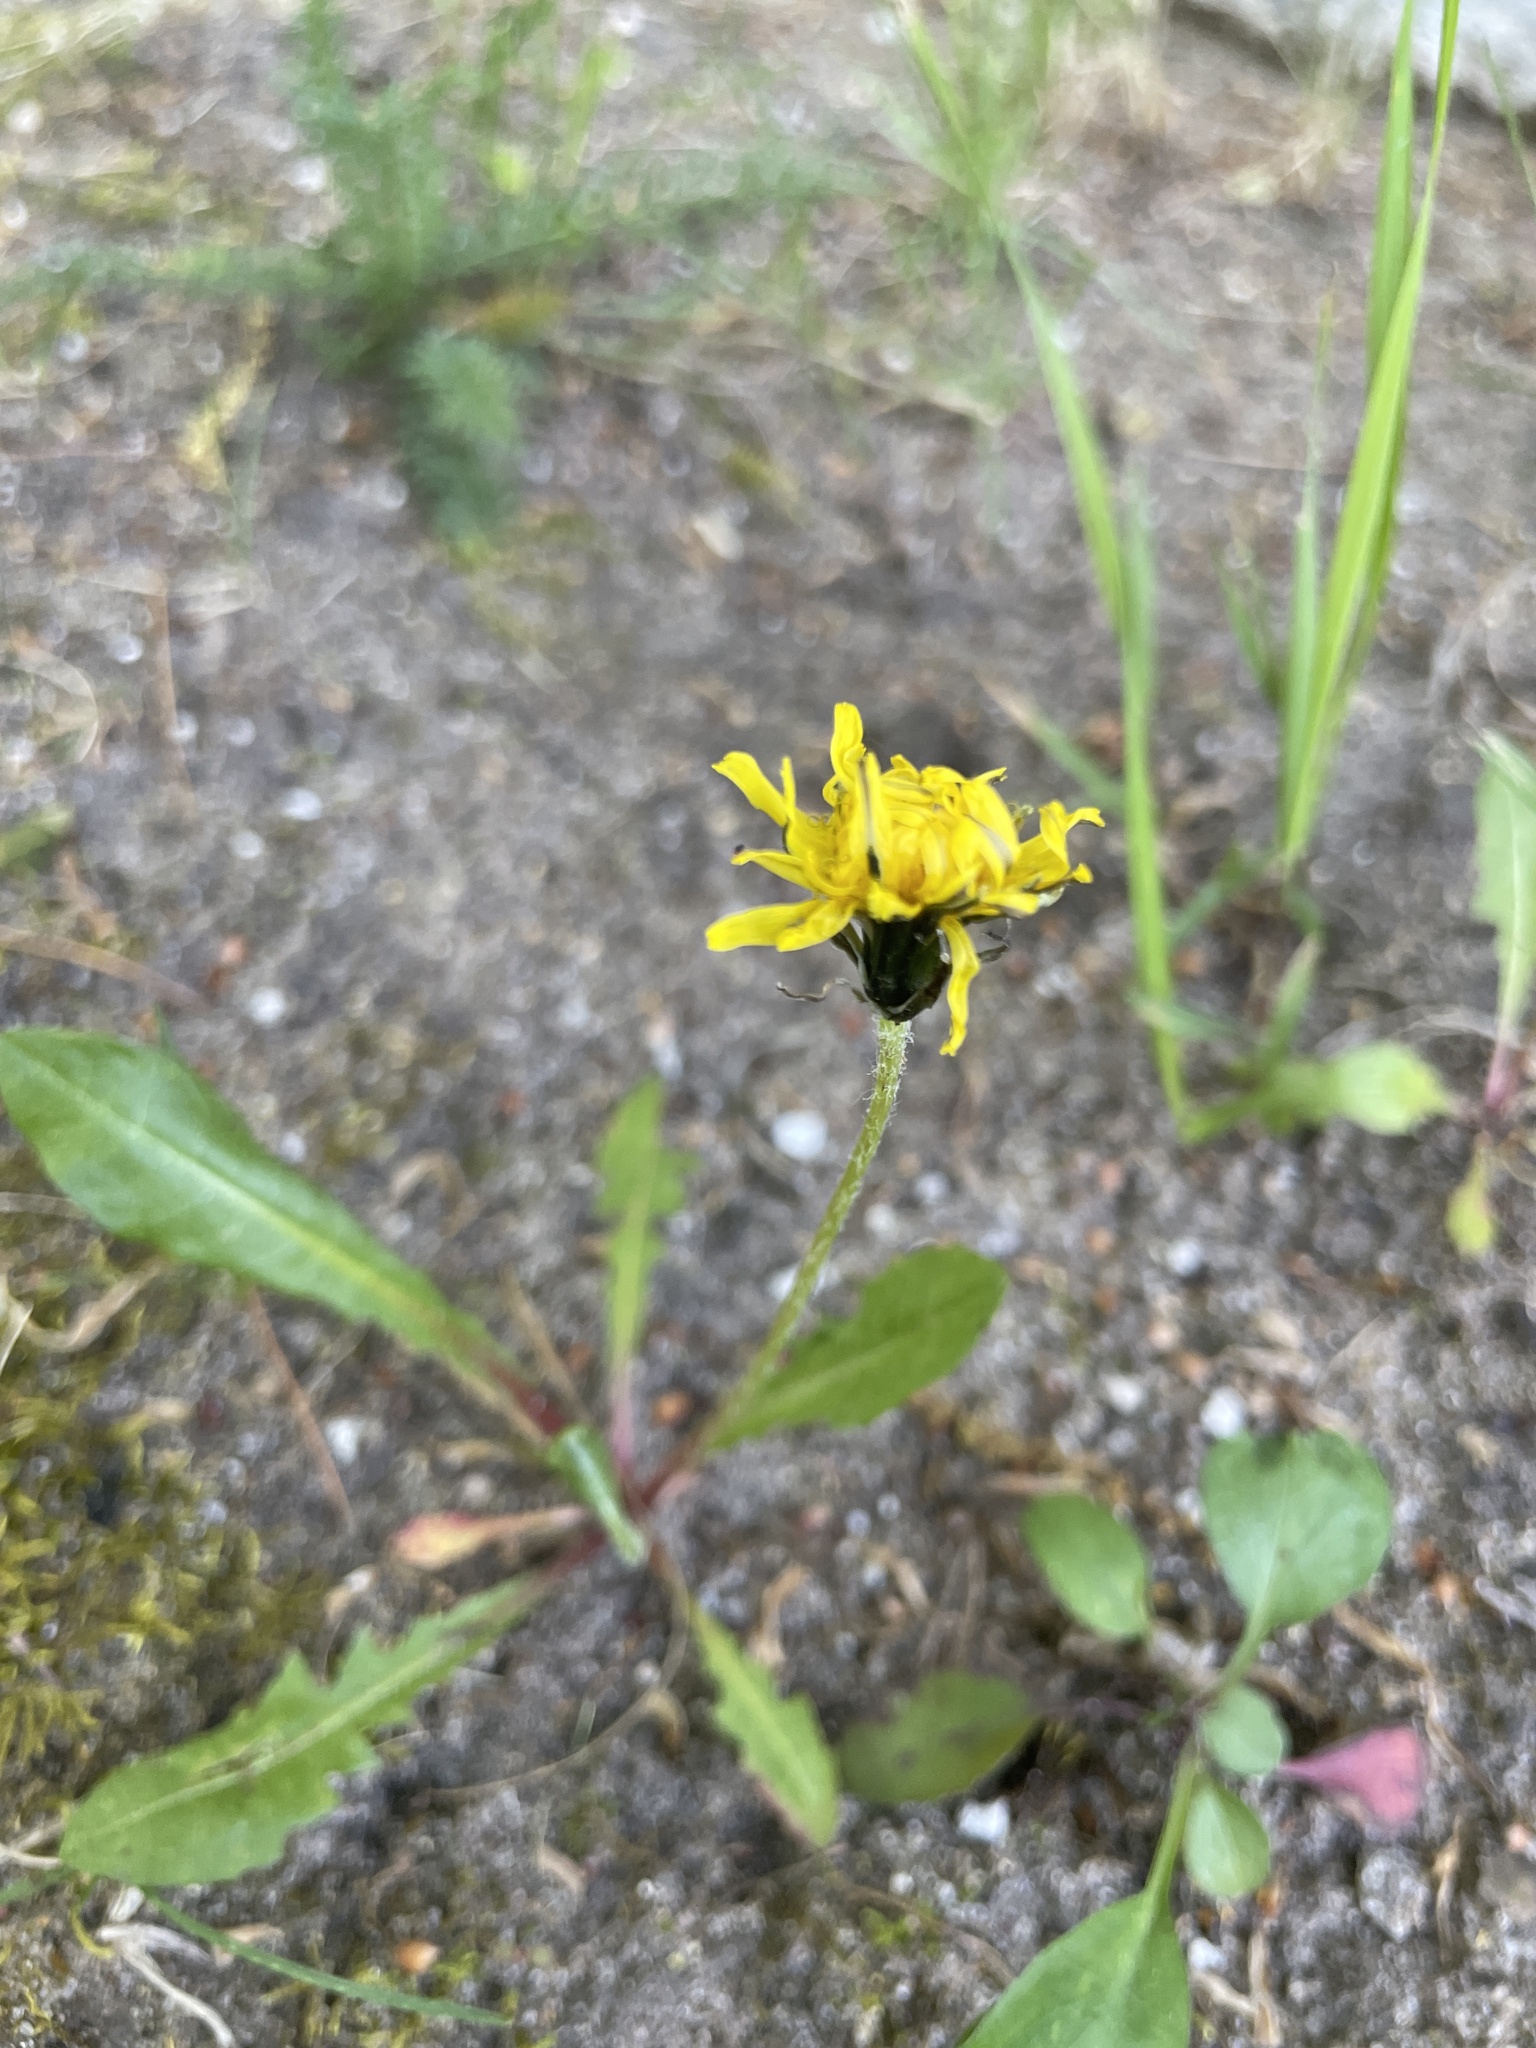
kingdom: Plantae
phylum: Tracheophyta
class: Magnoliopsida
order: Asterales
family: Asteraceae
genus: Taraxacum
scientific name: Taraxacum officinale
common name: Common dandelion
